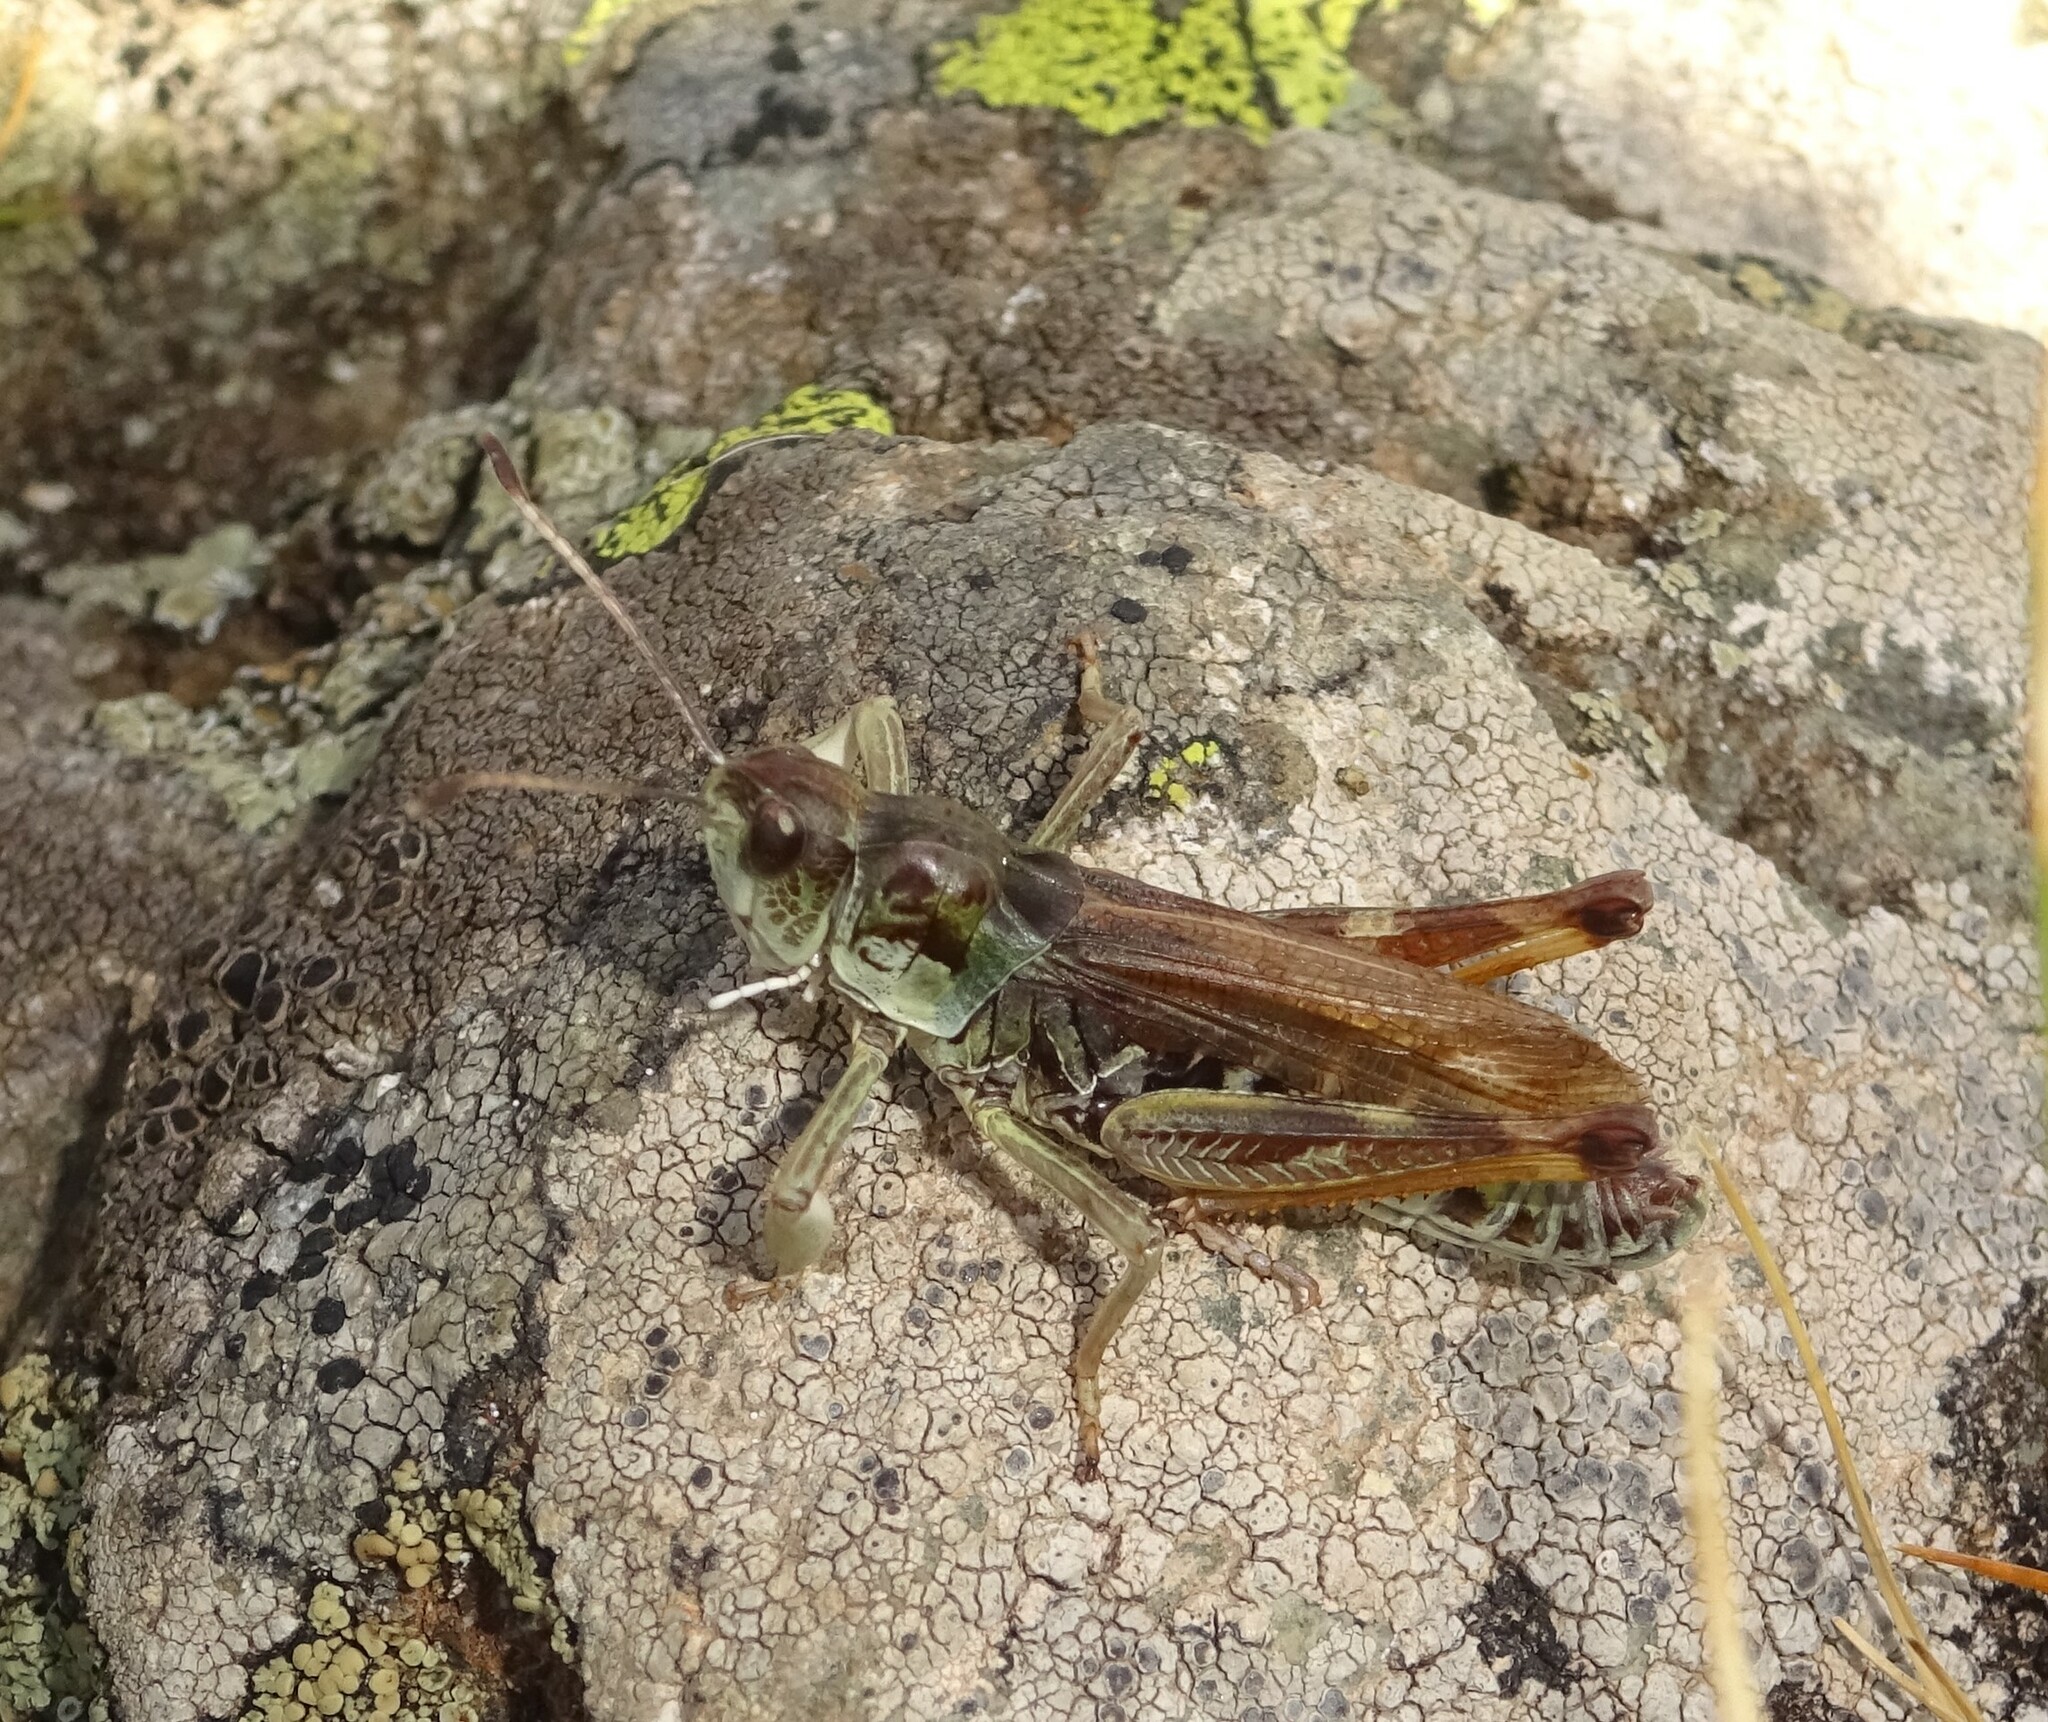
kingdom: Animalia
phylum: Arthropoda
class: Insecta
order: Orthoptera
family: Acrididae
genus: Gomphocerus
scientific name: Gomphocerus sibiricus
